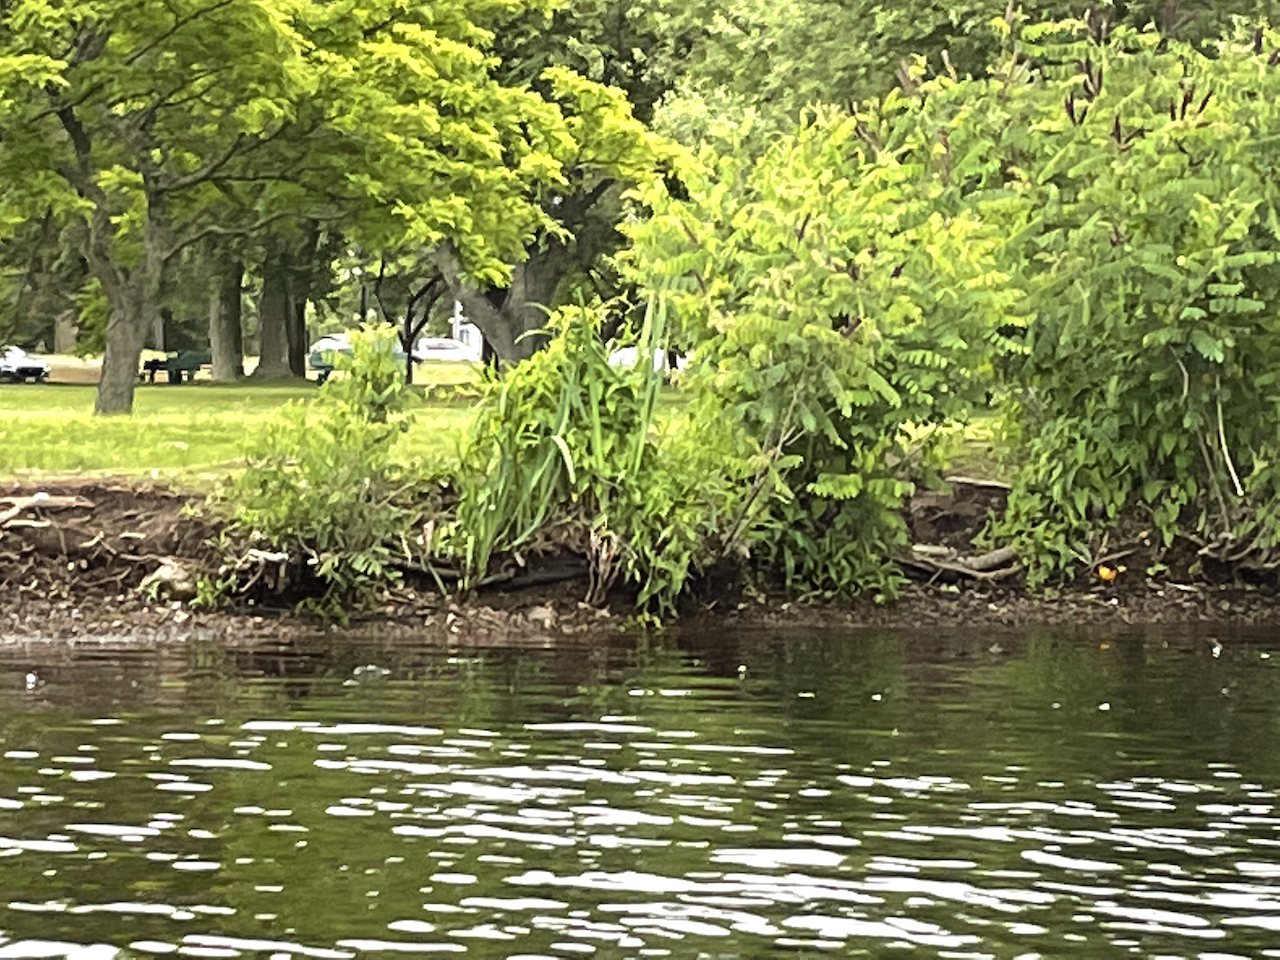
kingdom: Animalia
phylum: Chordata
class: Aves
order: Passeriformes
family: Icteridae
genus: Icterus
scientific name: Icterus galbula
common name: Baltimore oriole
